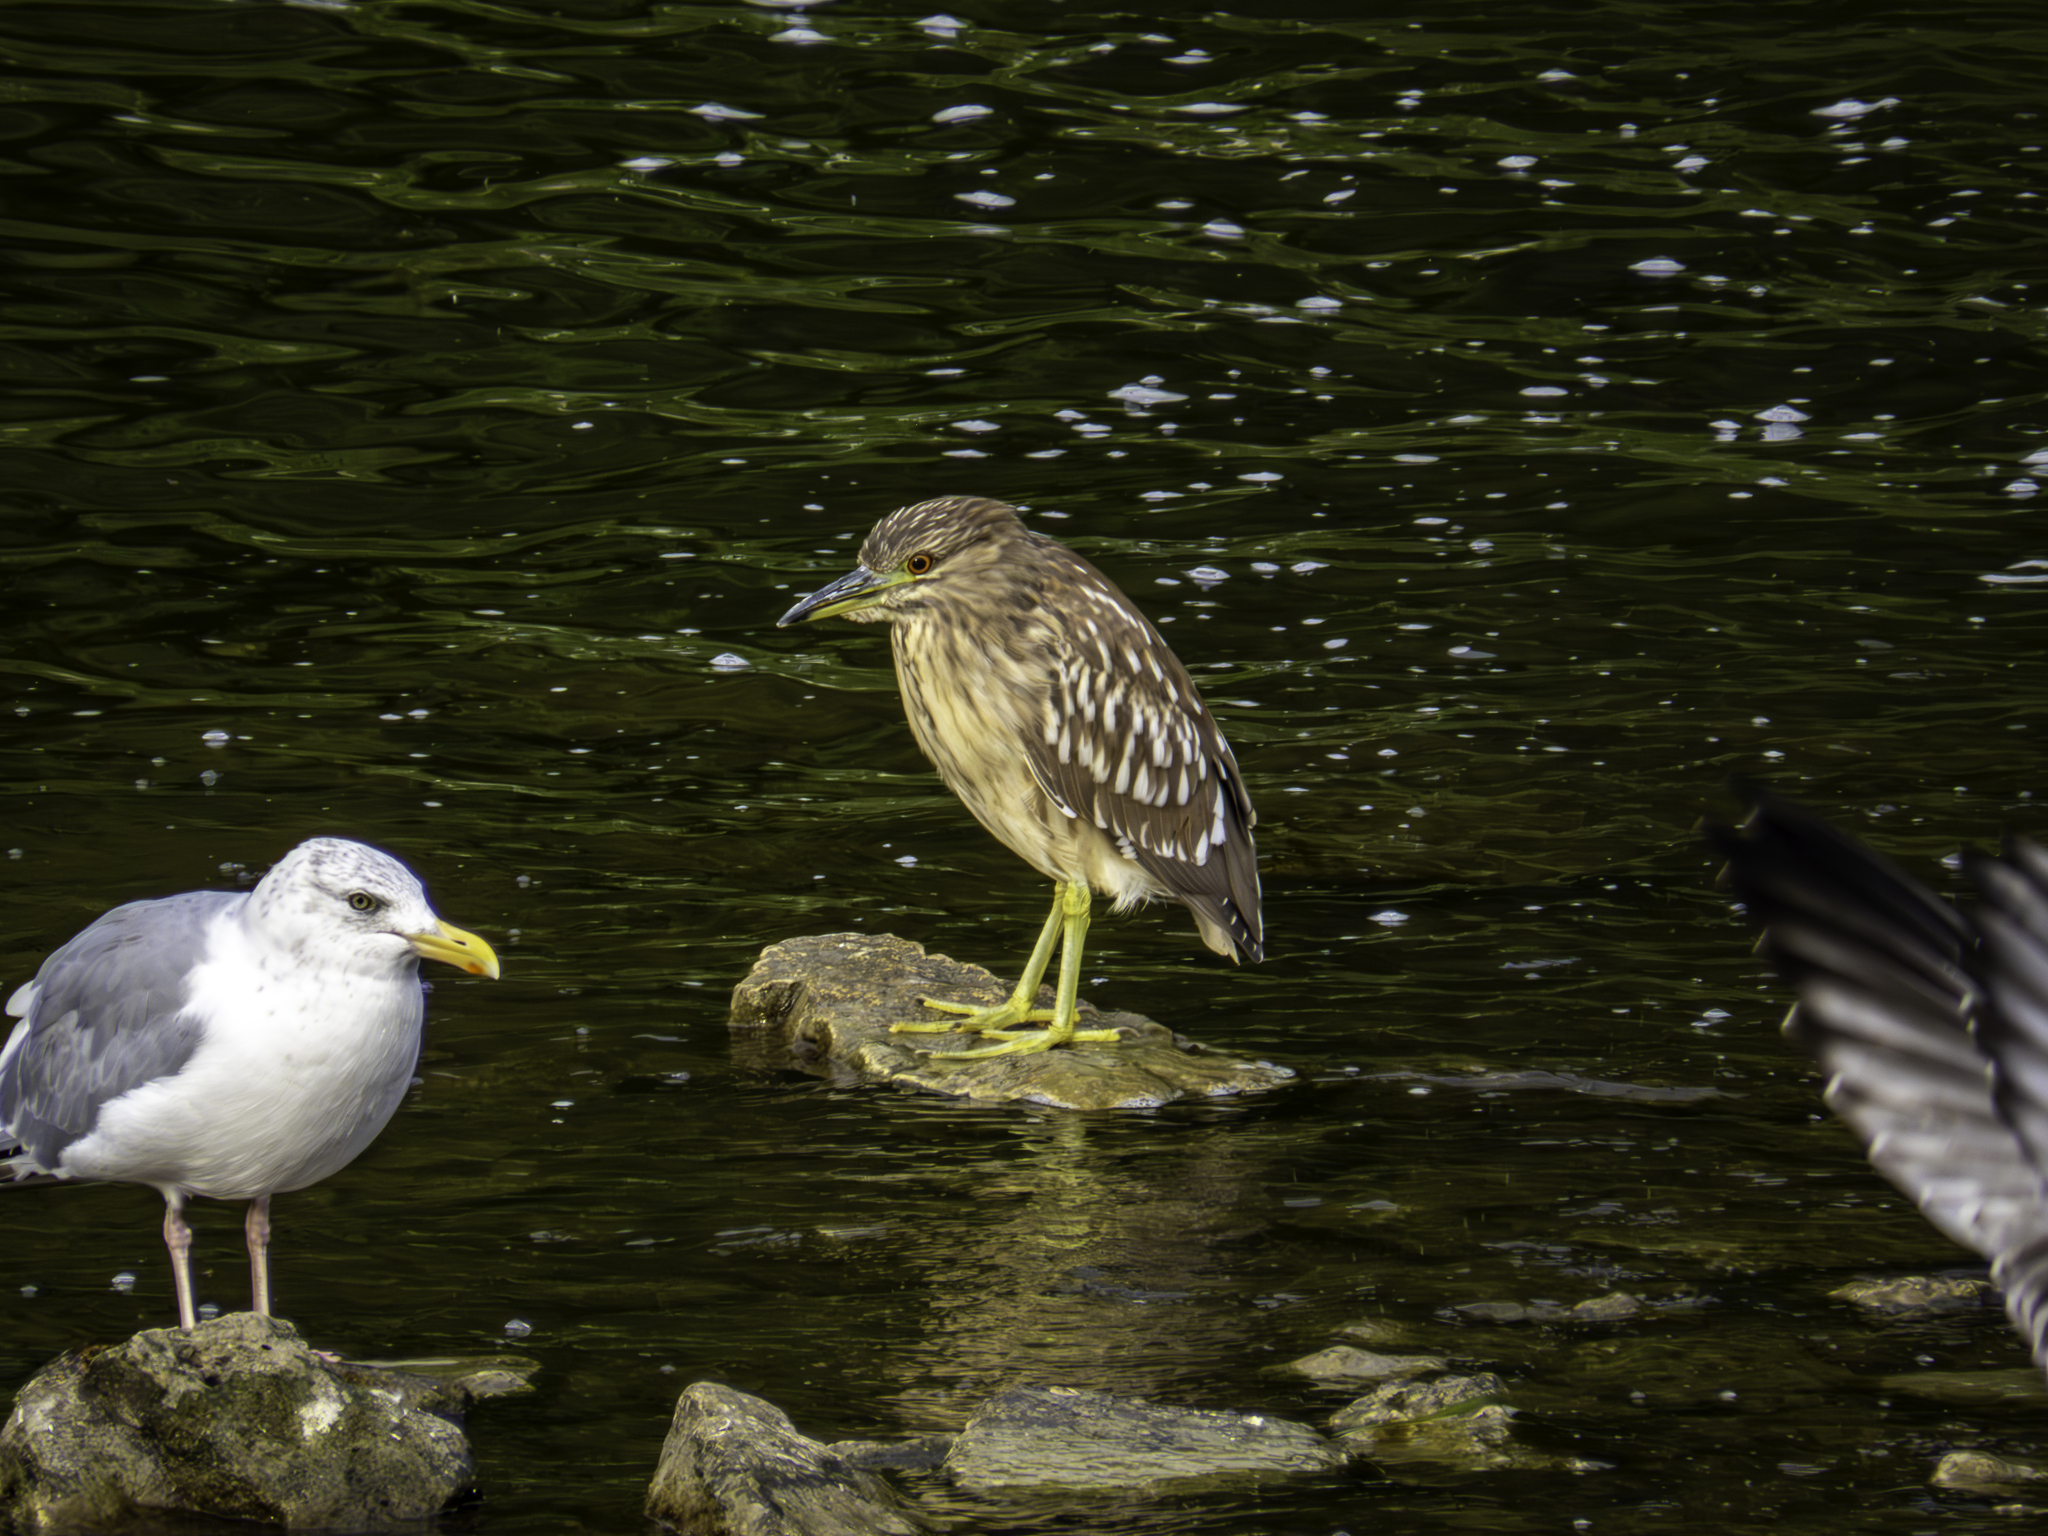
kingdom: Animalia
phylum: Chordata
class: Aves
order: Pelecaniformes
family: Ardeidae
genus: Nycticorax
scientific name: Nycticorax nycticorax
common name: Black-crowned night heron
